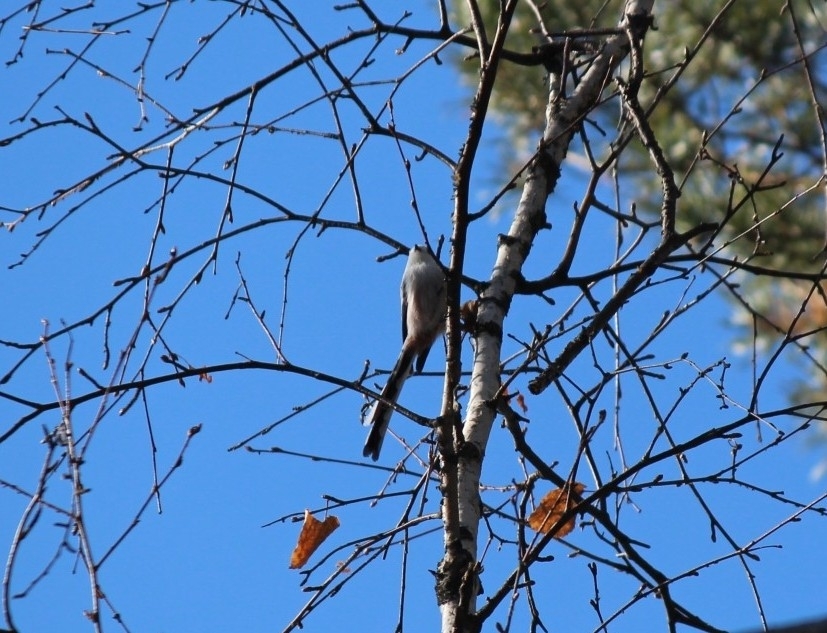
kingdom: Animalia
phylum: Chordata
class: Aves
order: Passeriformes
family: Aegithalidae
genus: Aegithalos
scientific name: Aegithalos caudatus
